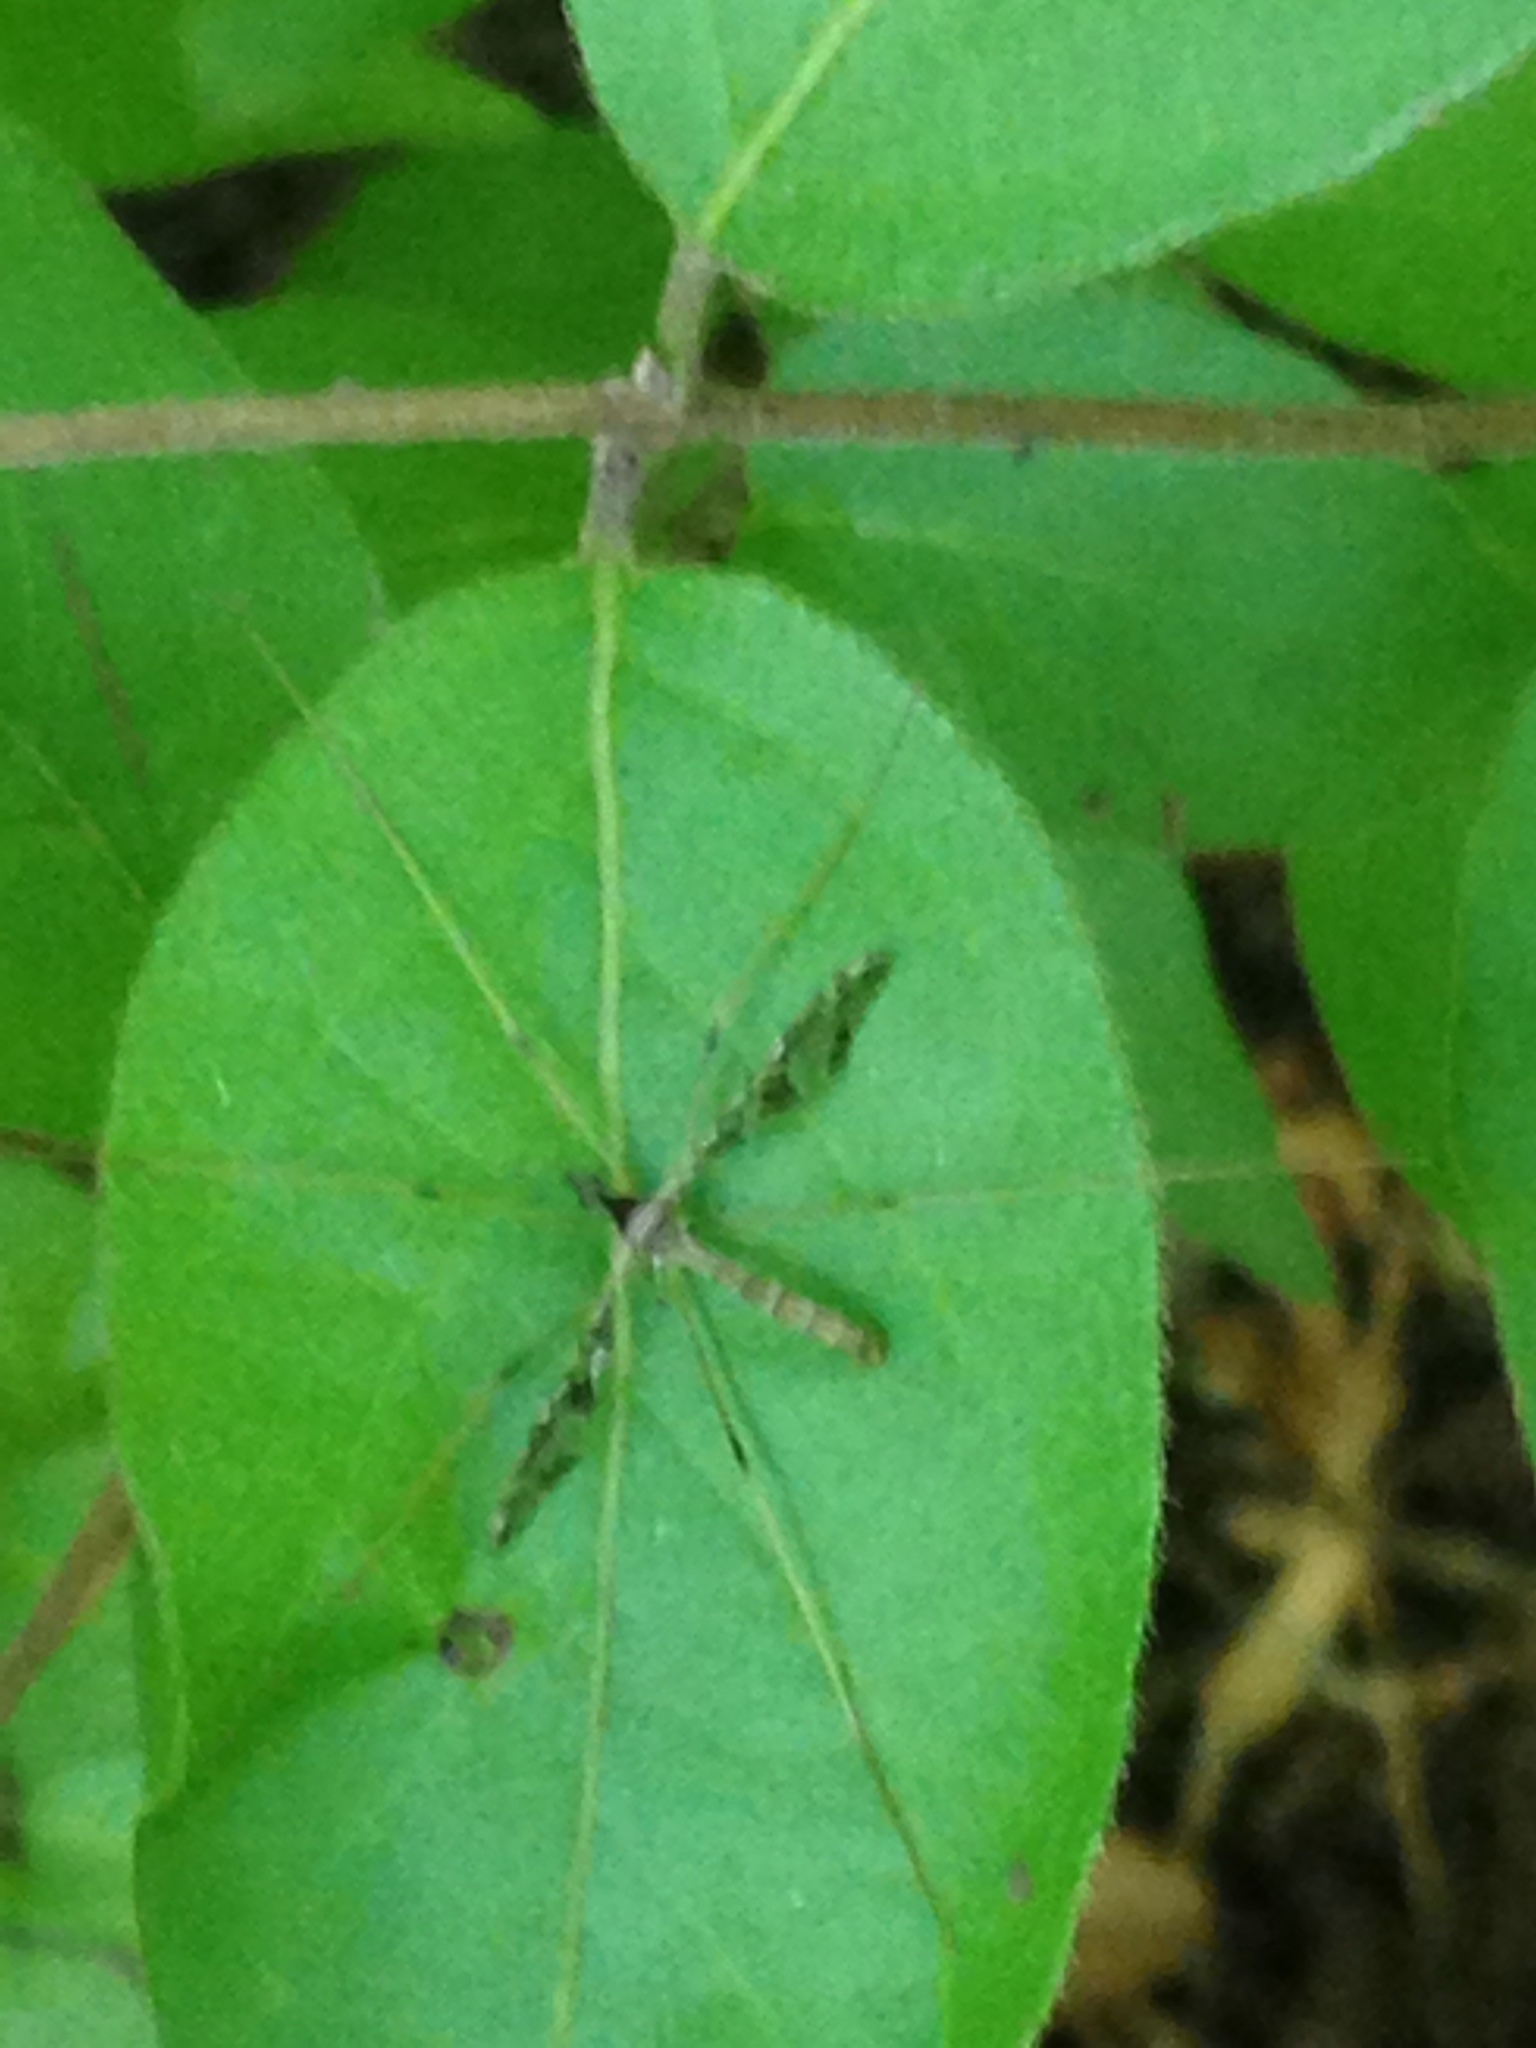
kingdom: Animalia
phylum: Arthropoda
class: Insecta
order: Diptera
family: Limoniidae
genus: Epiphragma
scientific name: Epiphragma solatrix
